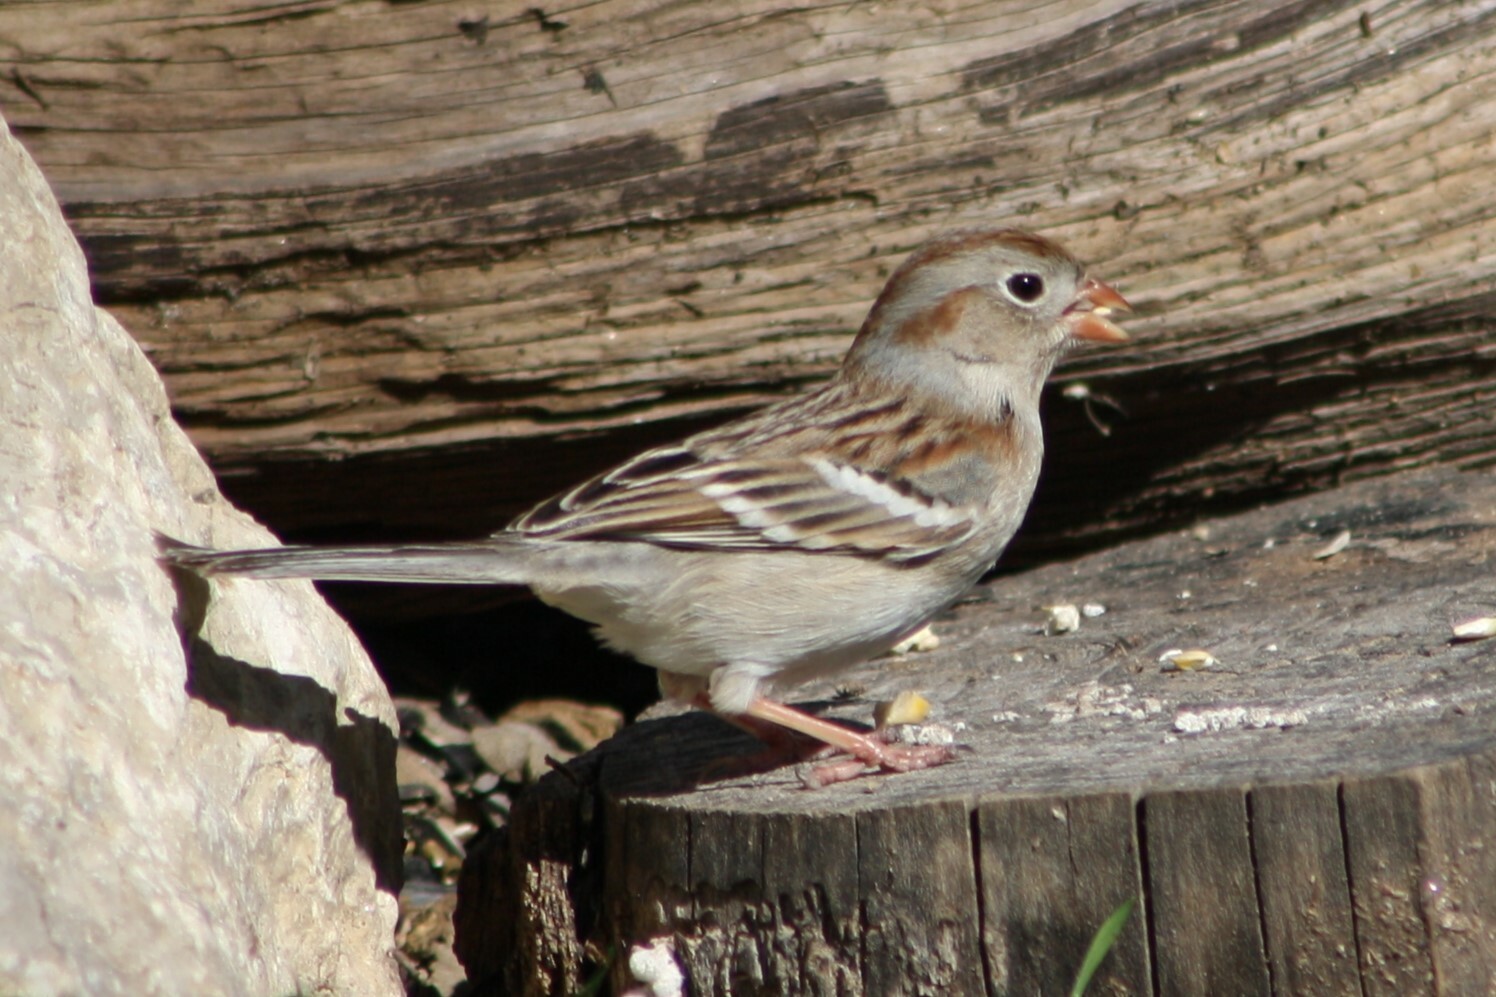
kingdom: Animalia
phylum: Chordata
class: Aves
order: Passeriformes
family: Passerellidae
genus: Spizella
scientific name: Spizella pusilla
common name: Field sparrow
